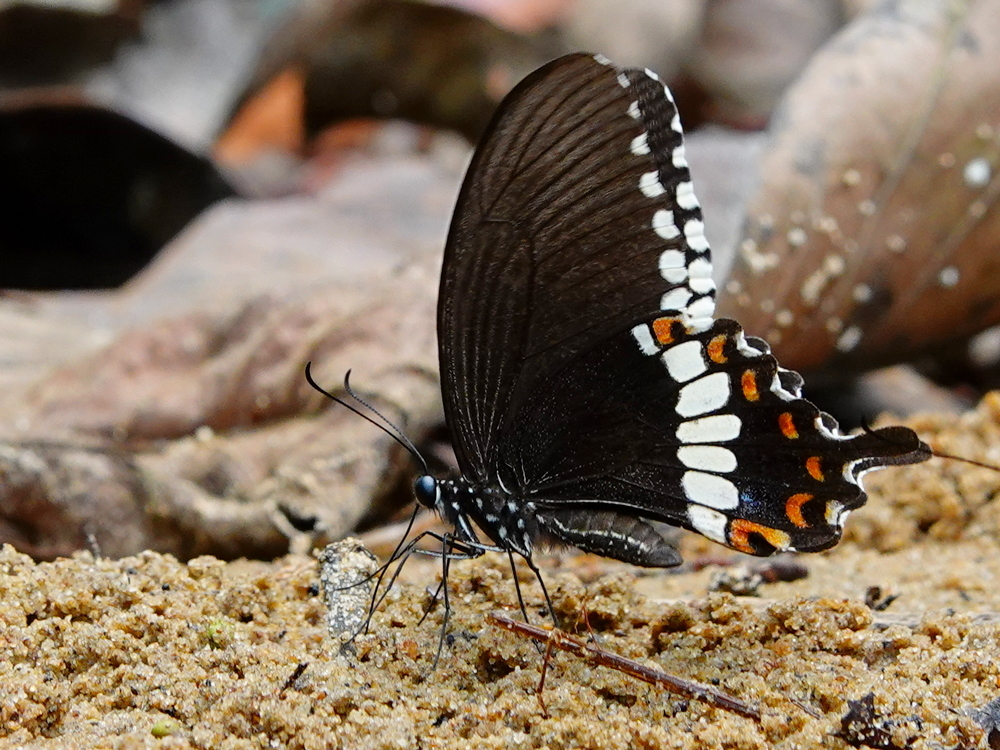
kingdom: Animalia
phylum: Arthropoda
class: Insecta
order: Lepidoptera
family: Papilionidae
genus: Papilio
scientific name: Papilio polytes
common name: Common mormon
